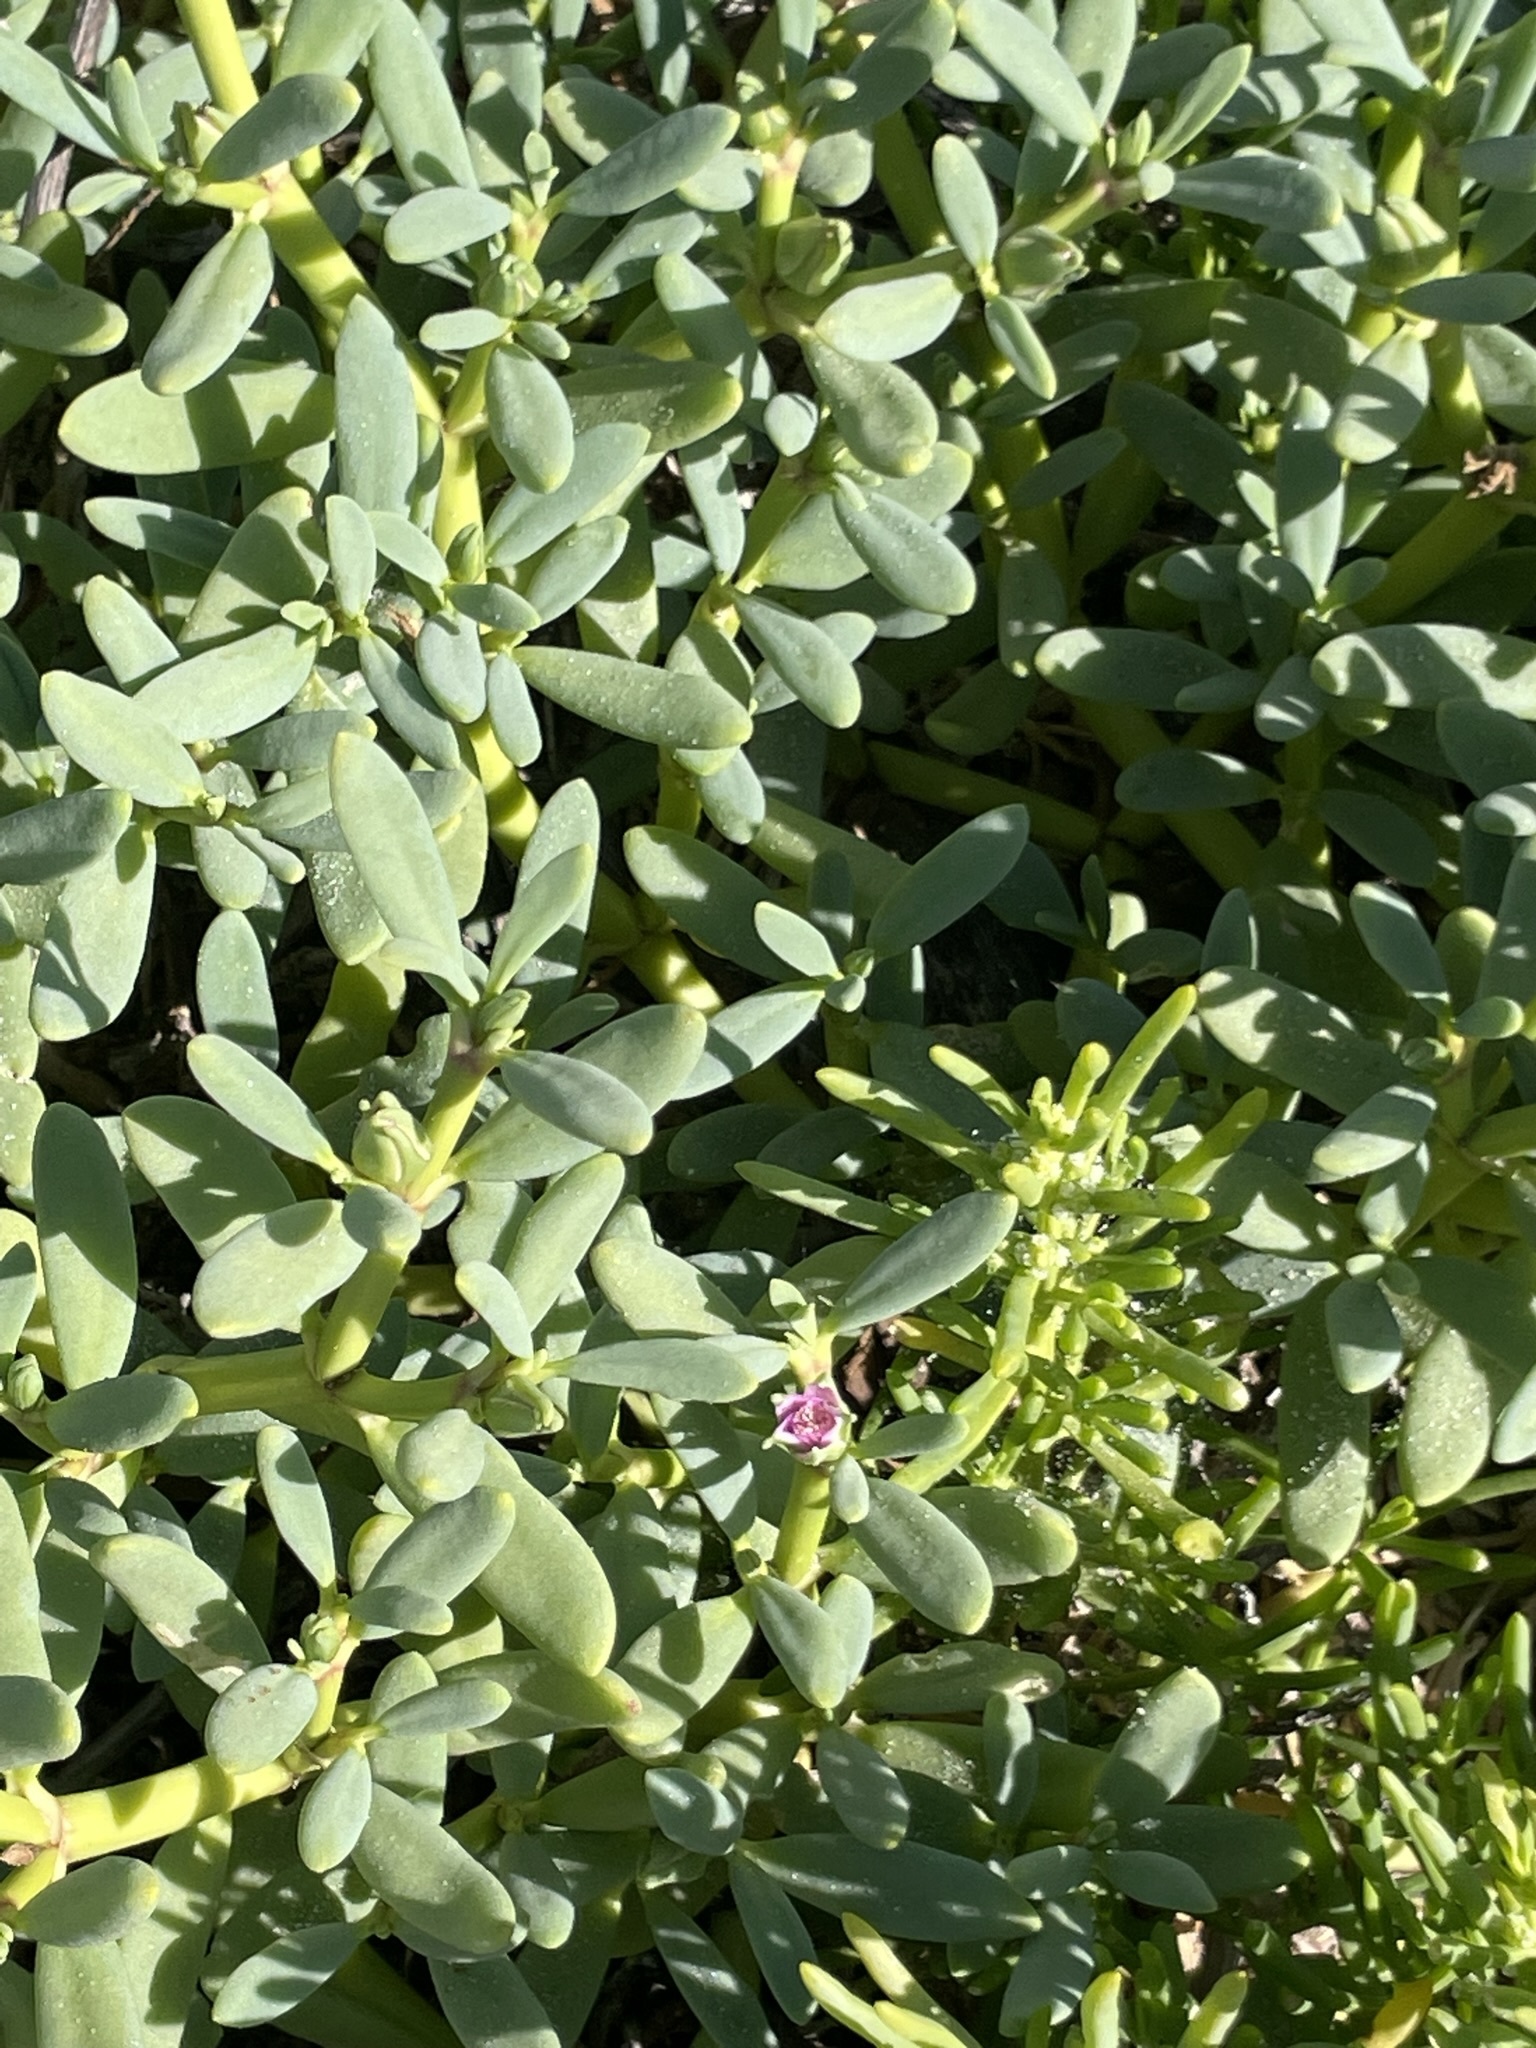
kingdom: Plantae
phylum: Tracheophyta
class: Magnoliopsida
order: Caryophyllales
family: Aizoaceae
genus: Sesuvium
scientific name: Sesuvium portulacastrum
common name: Sea-purslane
